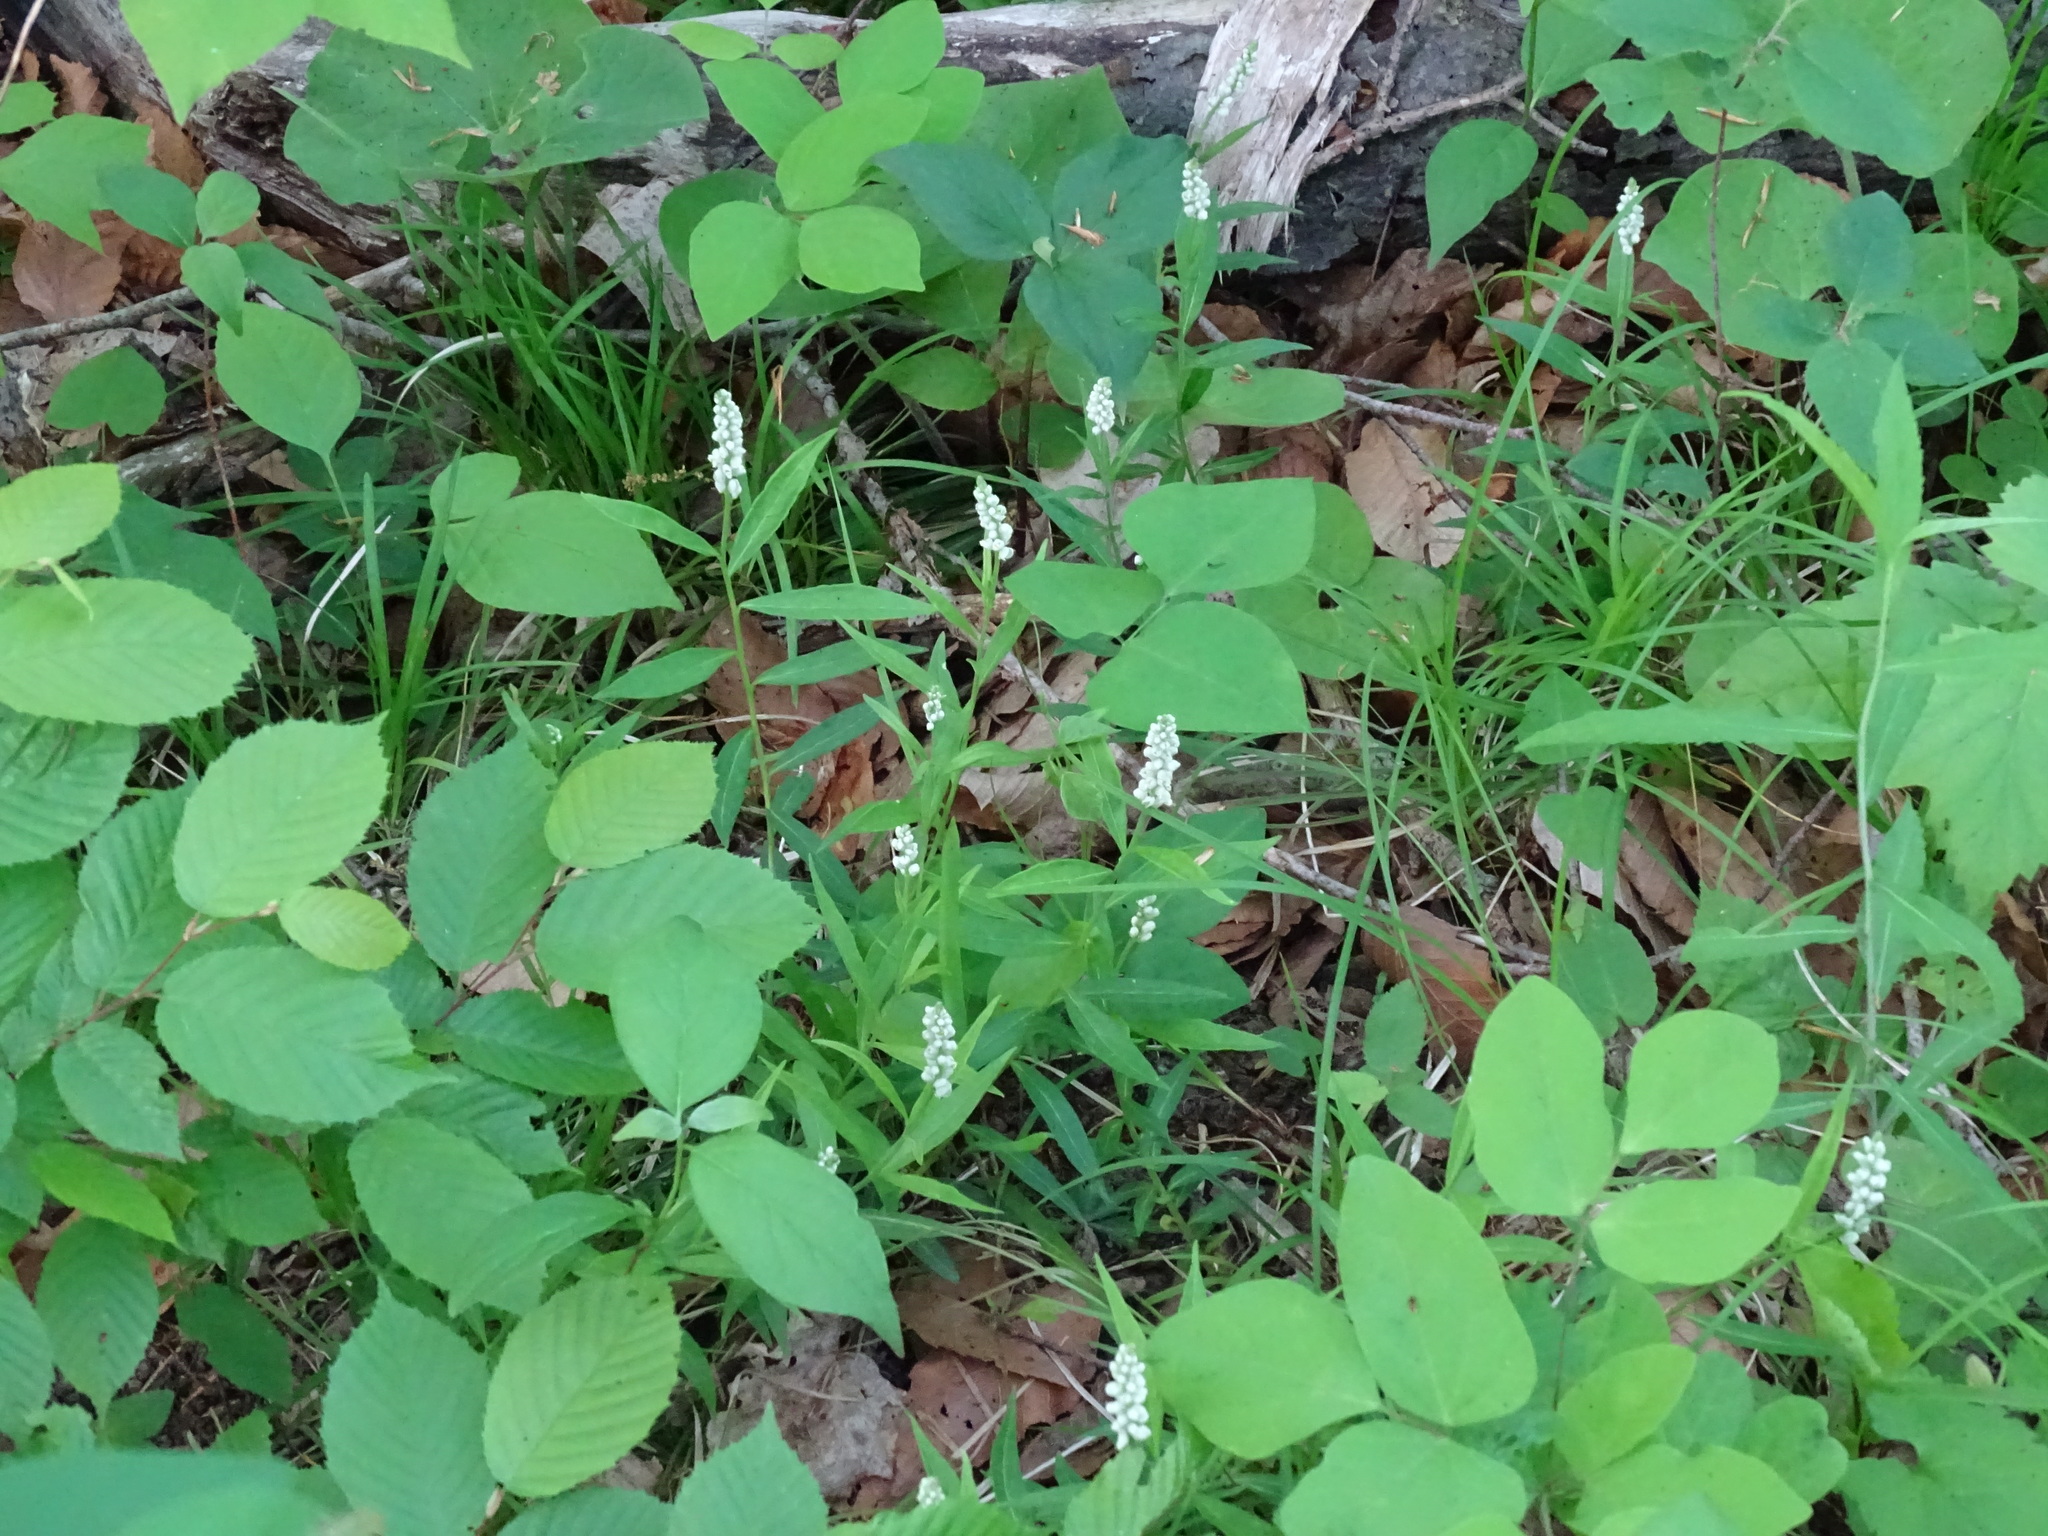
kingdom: Plantae
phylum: Tracheophyta
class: Magnoliopsida
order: Fabales
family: Polygalaceae
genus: Polygala
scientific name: Polygala senega
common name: Seneca snakeroot
